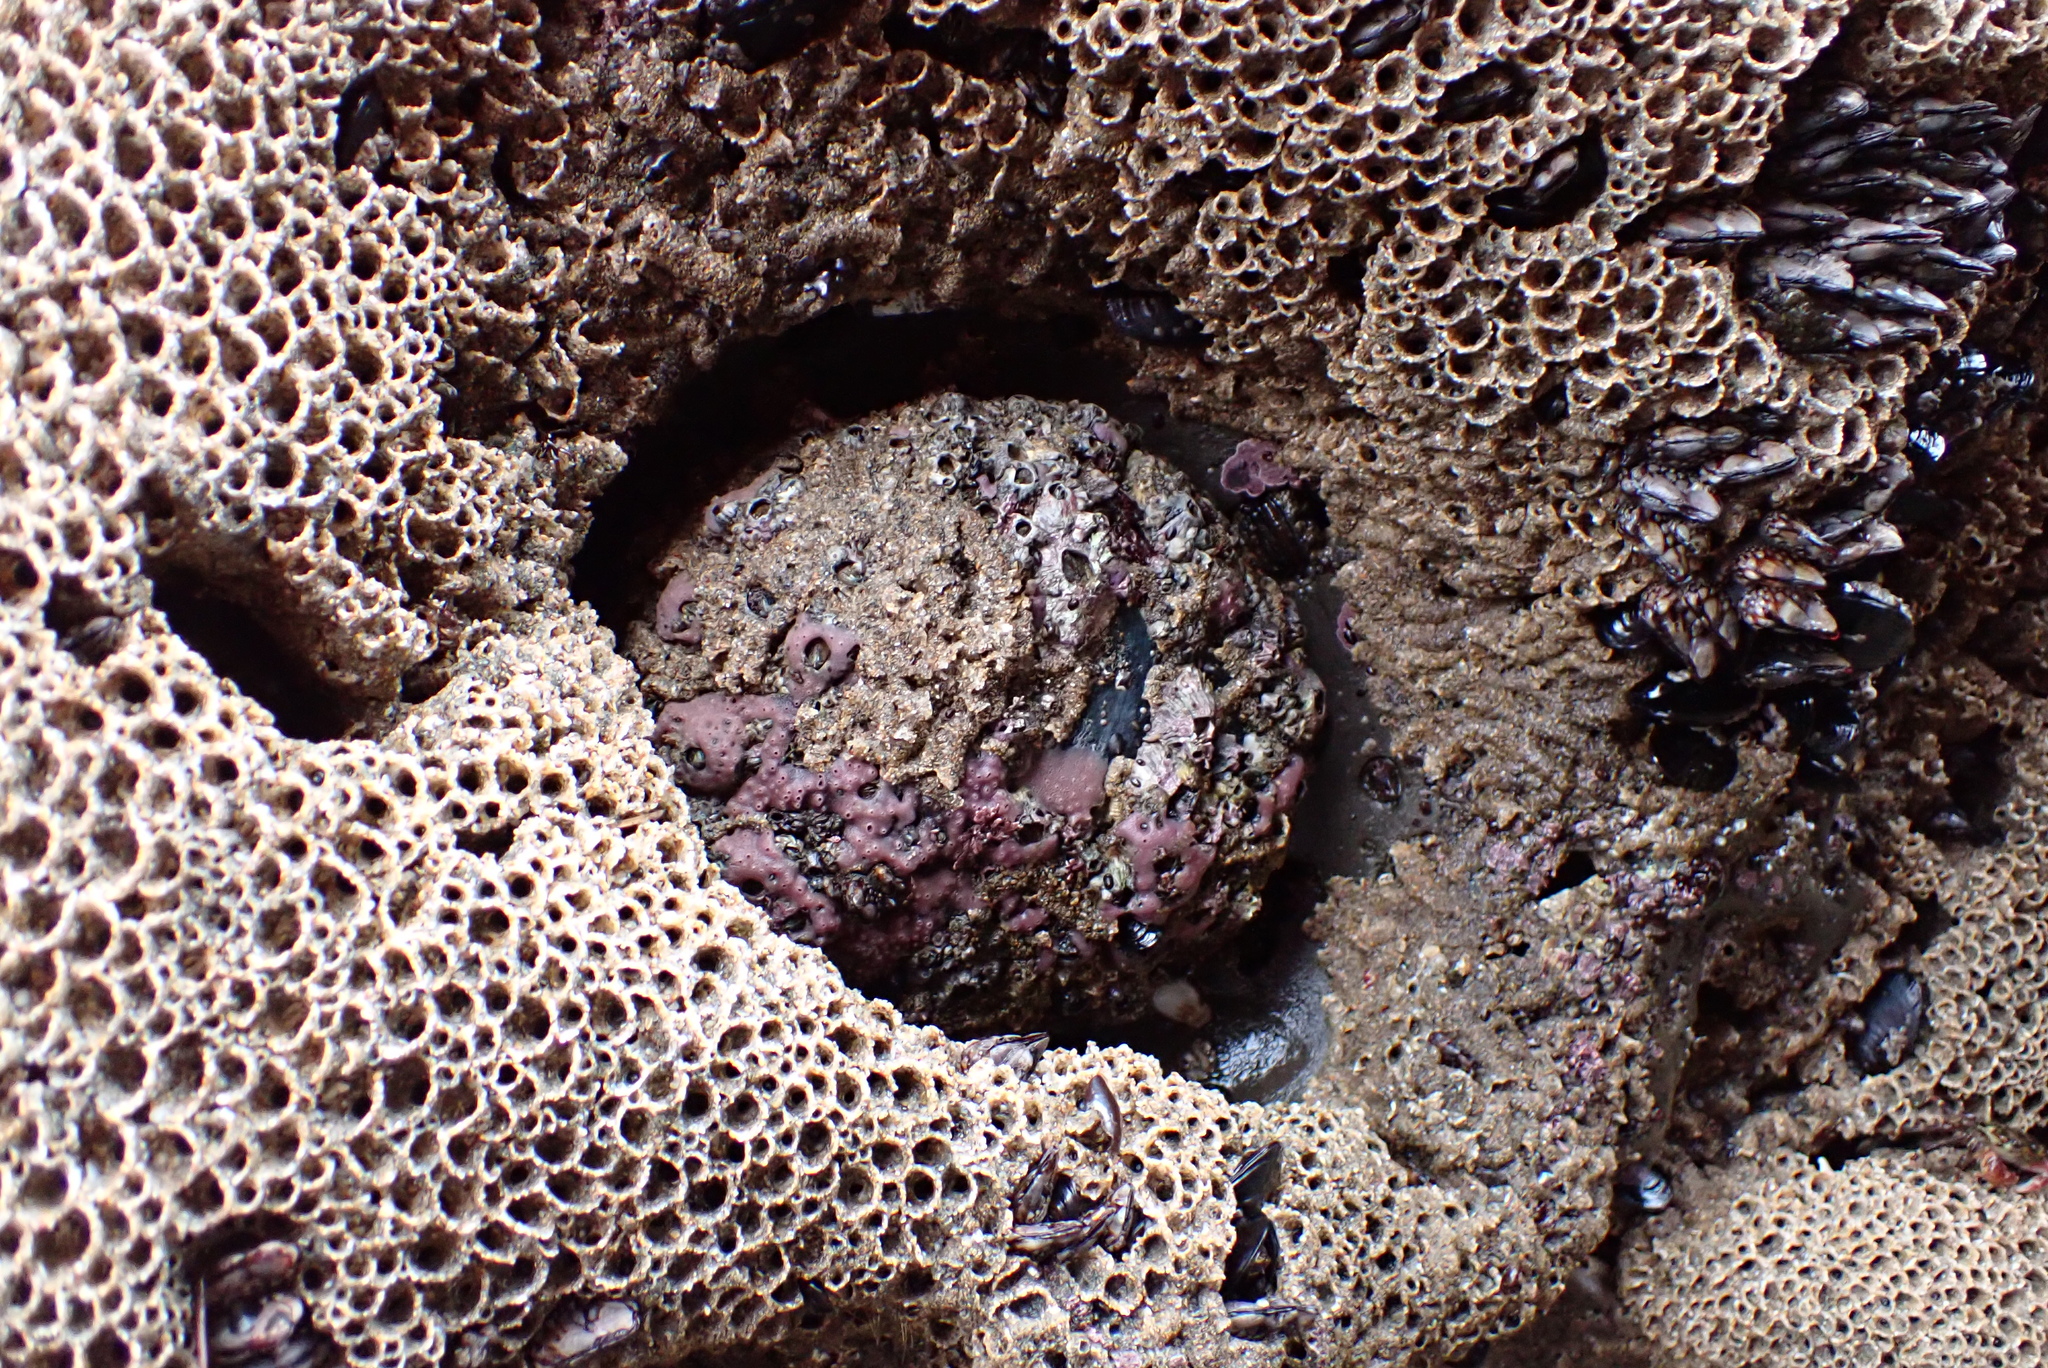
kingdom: Animalia
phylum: Mollusca
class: Gastropoda
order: Lepetellida
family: Haliotidae
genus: Haliotis
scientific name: Haliotis cracherodii
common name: Black abalone
